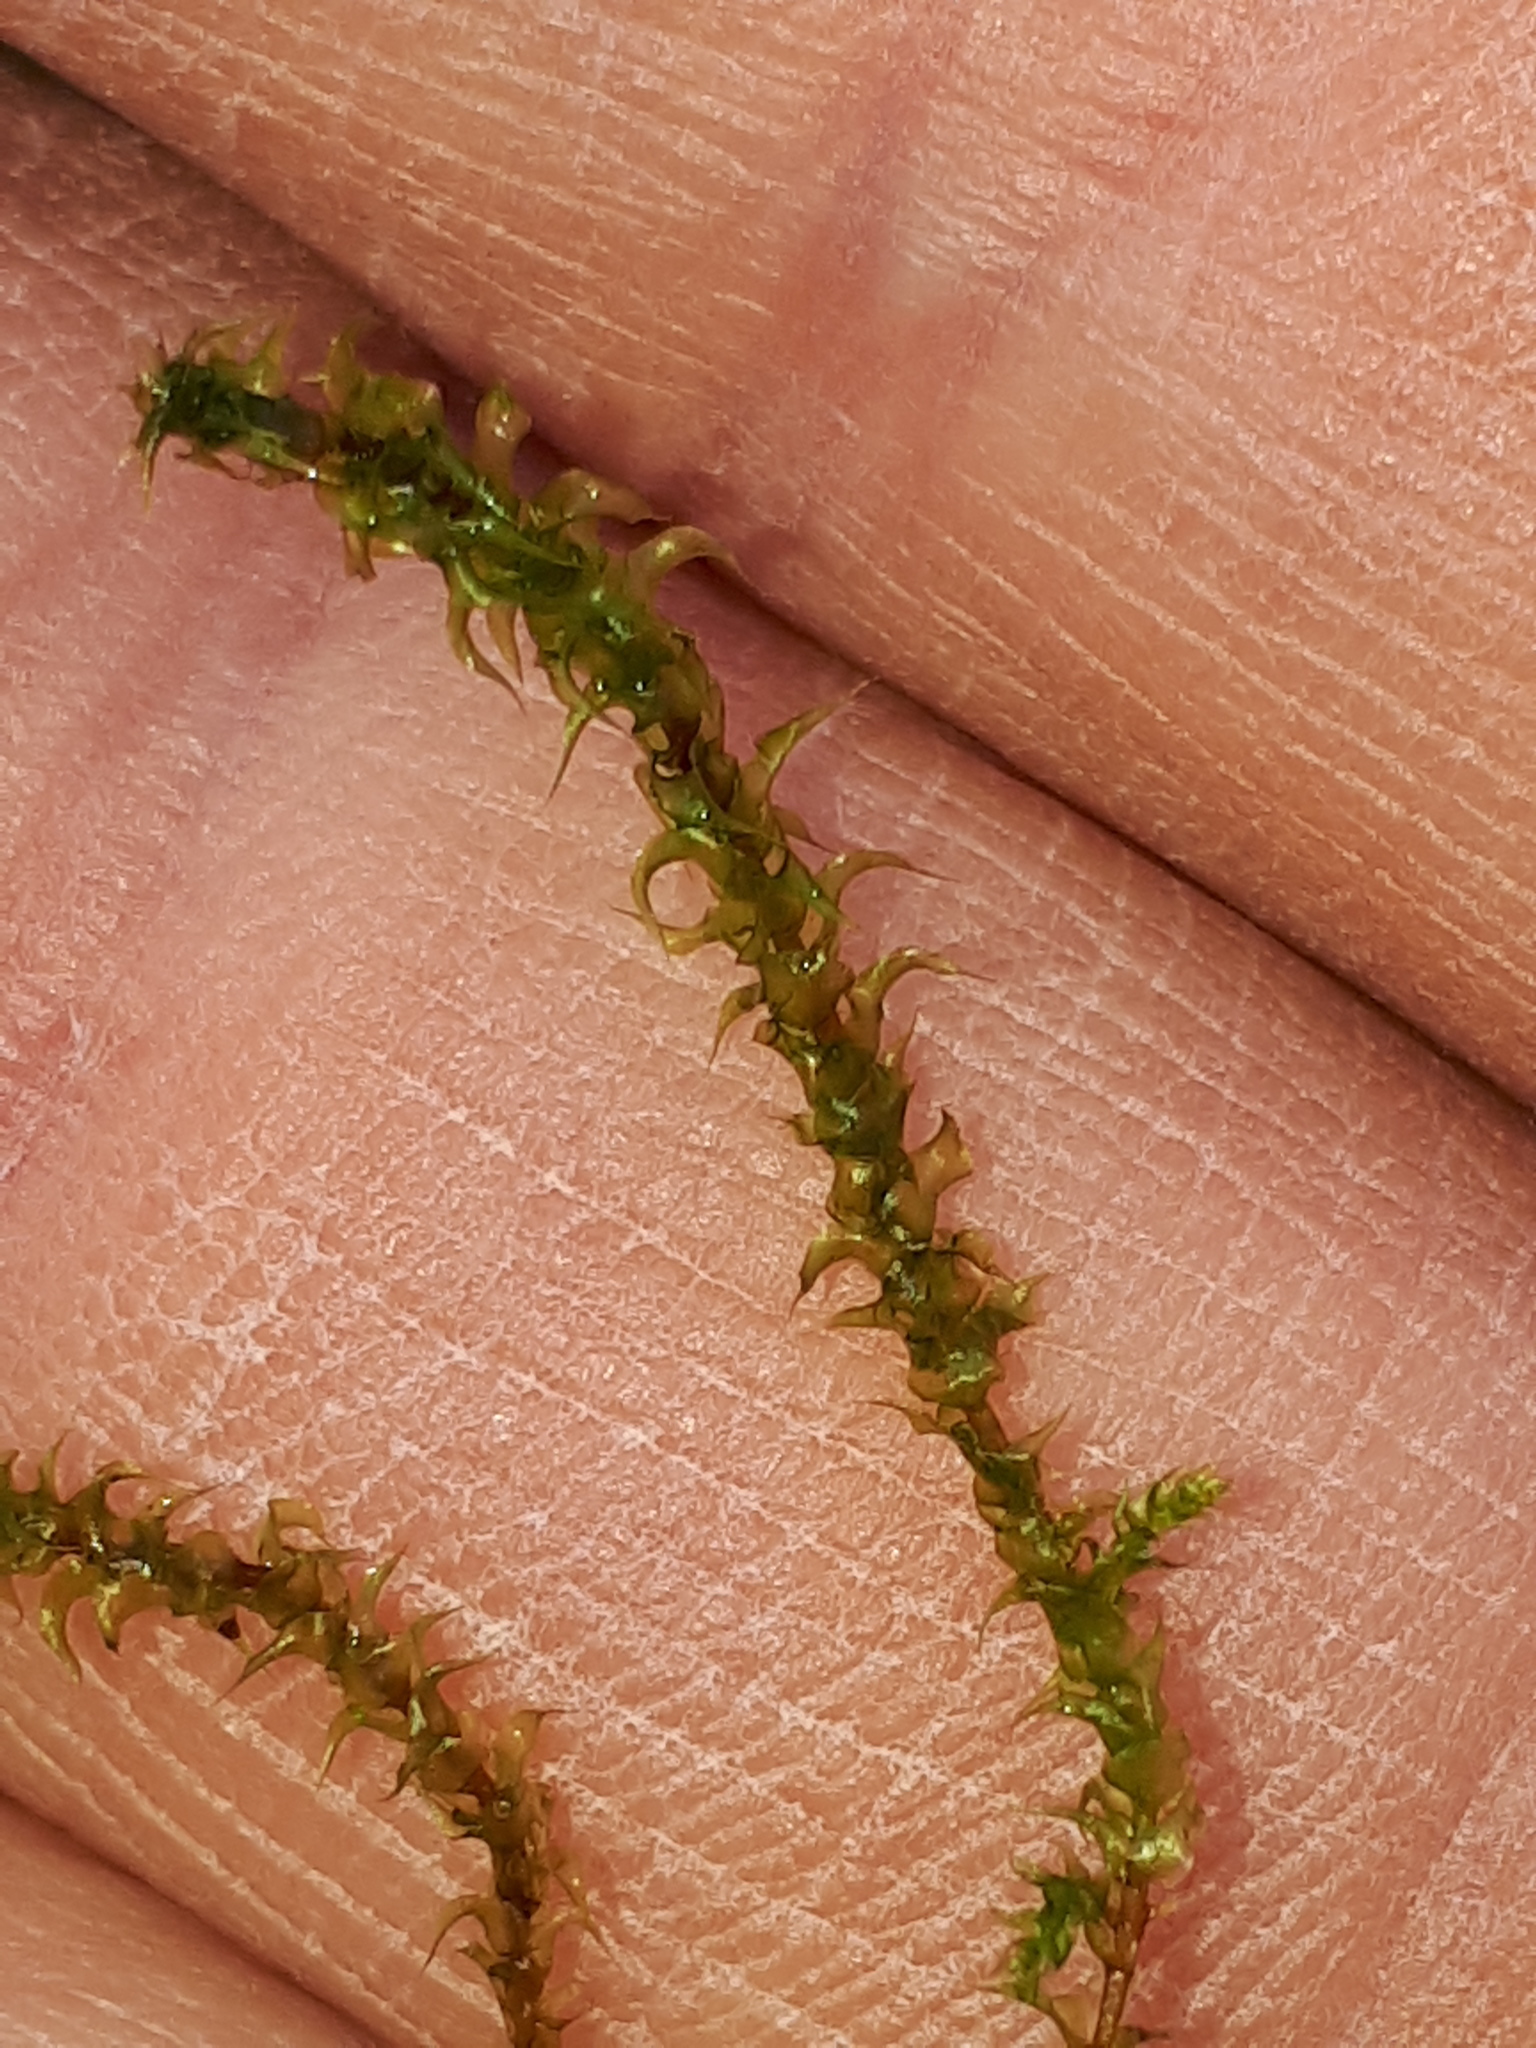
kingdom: Plantae
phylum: Bryophyta
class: Bryopsida
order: Hypnales
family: Hylocomiaceae
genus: Rhytidiadelphus
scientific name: Rhytidiadelphus squarrosus
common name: Springy turf-moss
